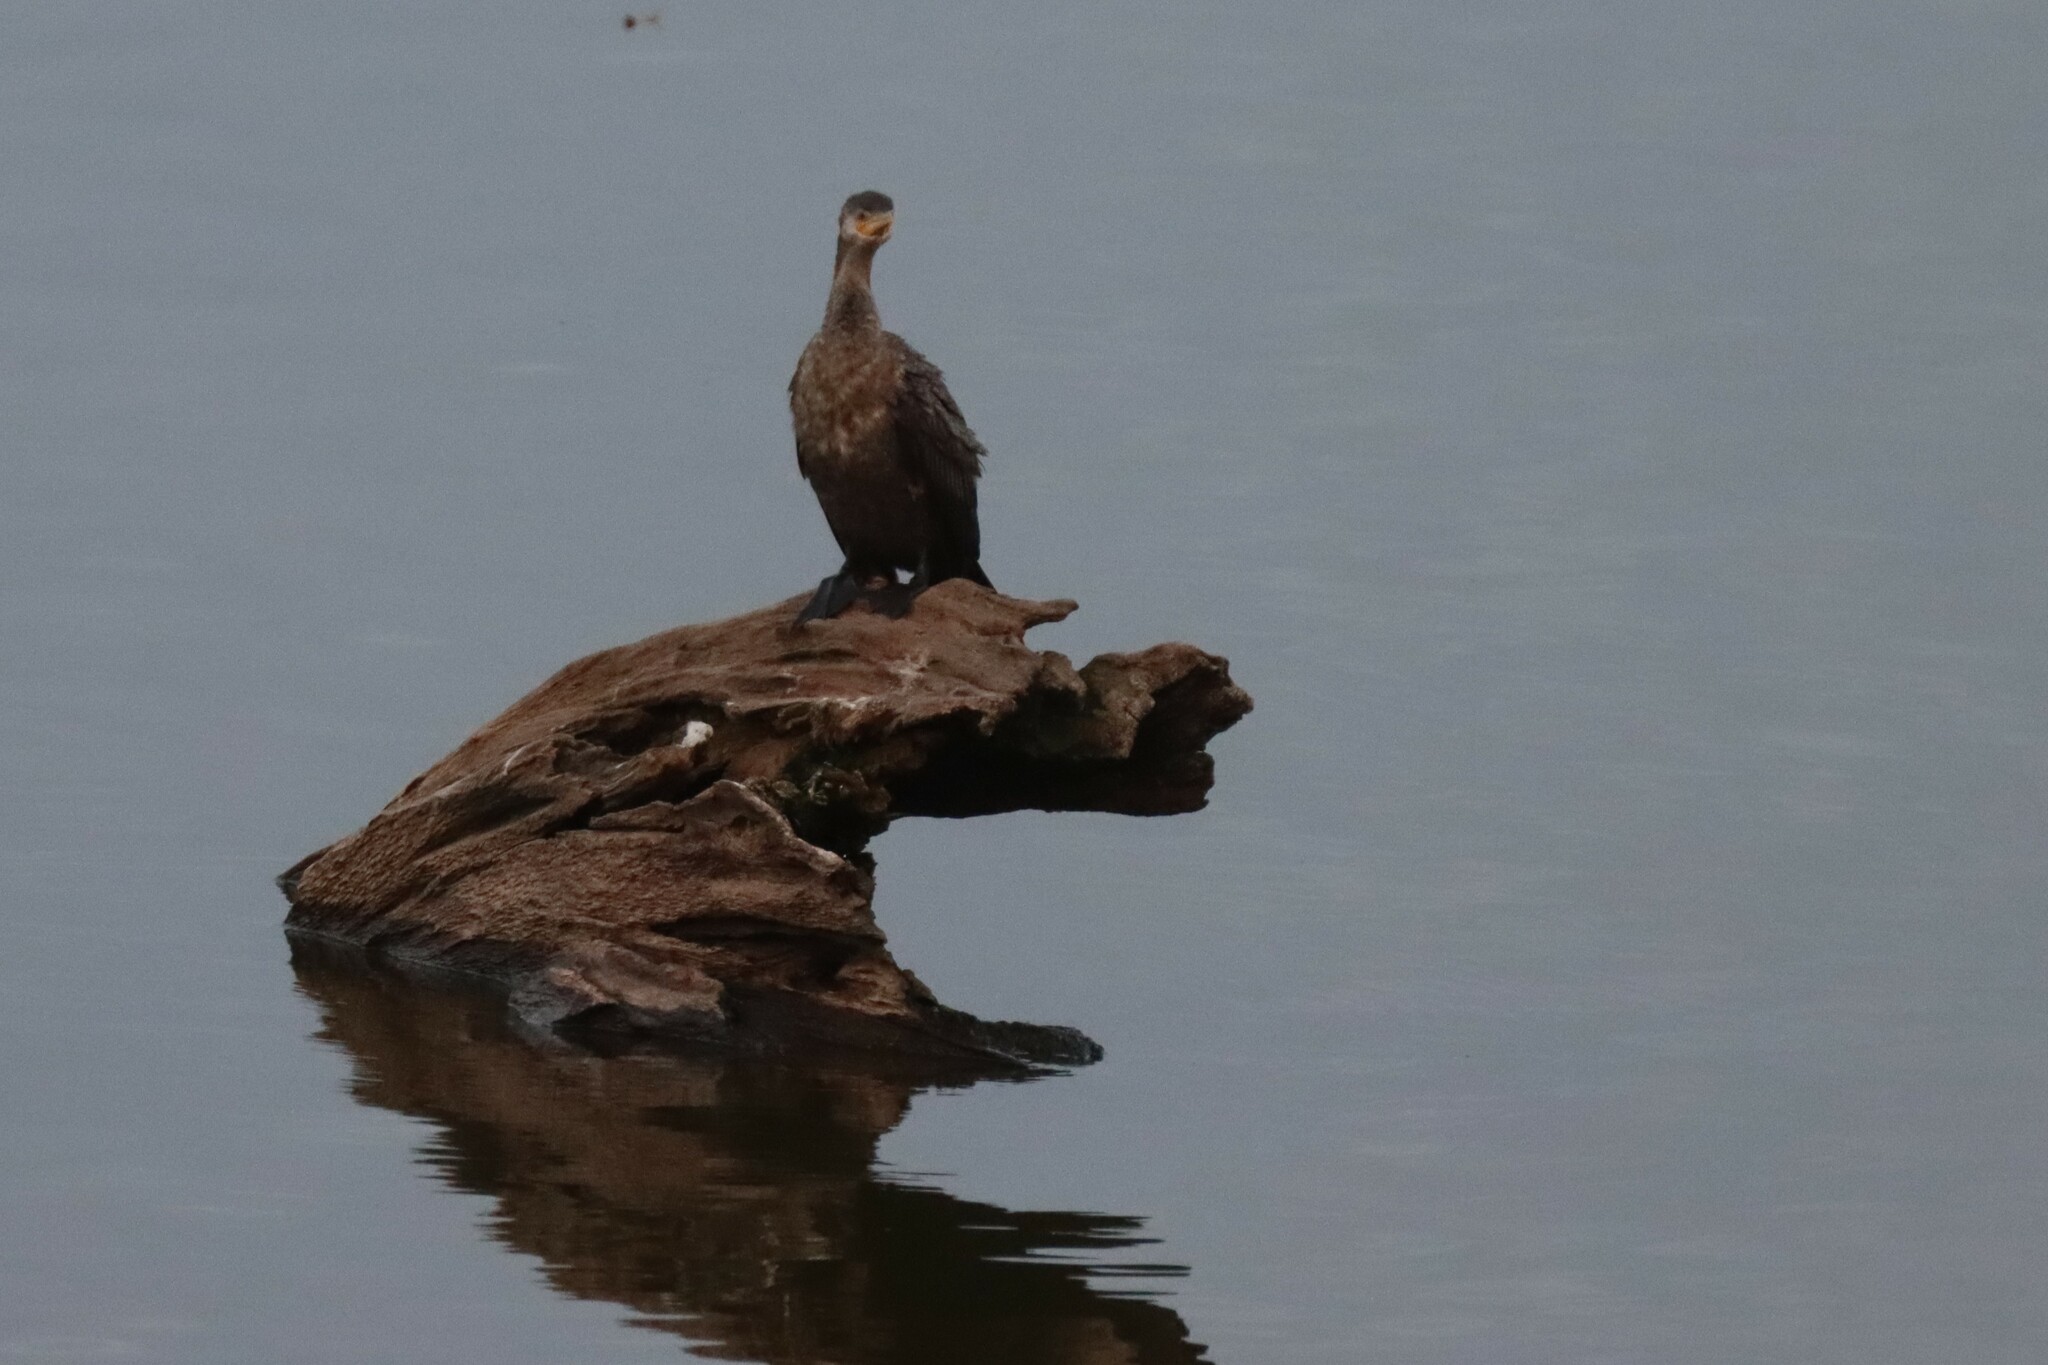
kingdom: Animalia
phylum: Chordata
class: Aves
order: Suliformes
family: Phalacrocoracidae
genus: Phalacrocorax
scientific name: Phalacrocorax auritus
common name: Double-crested cormorant
